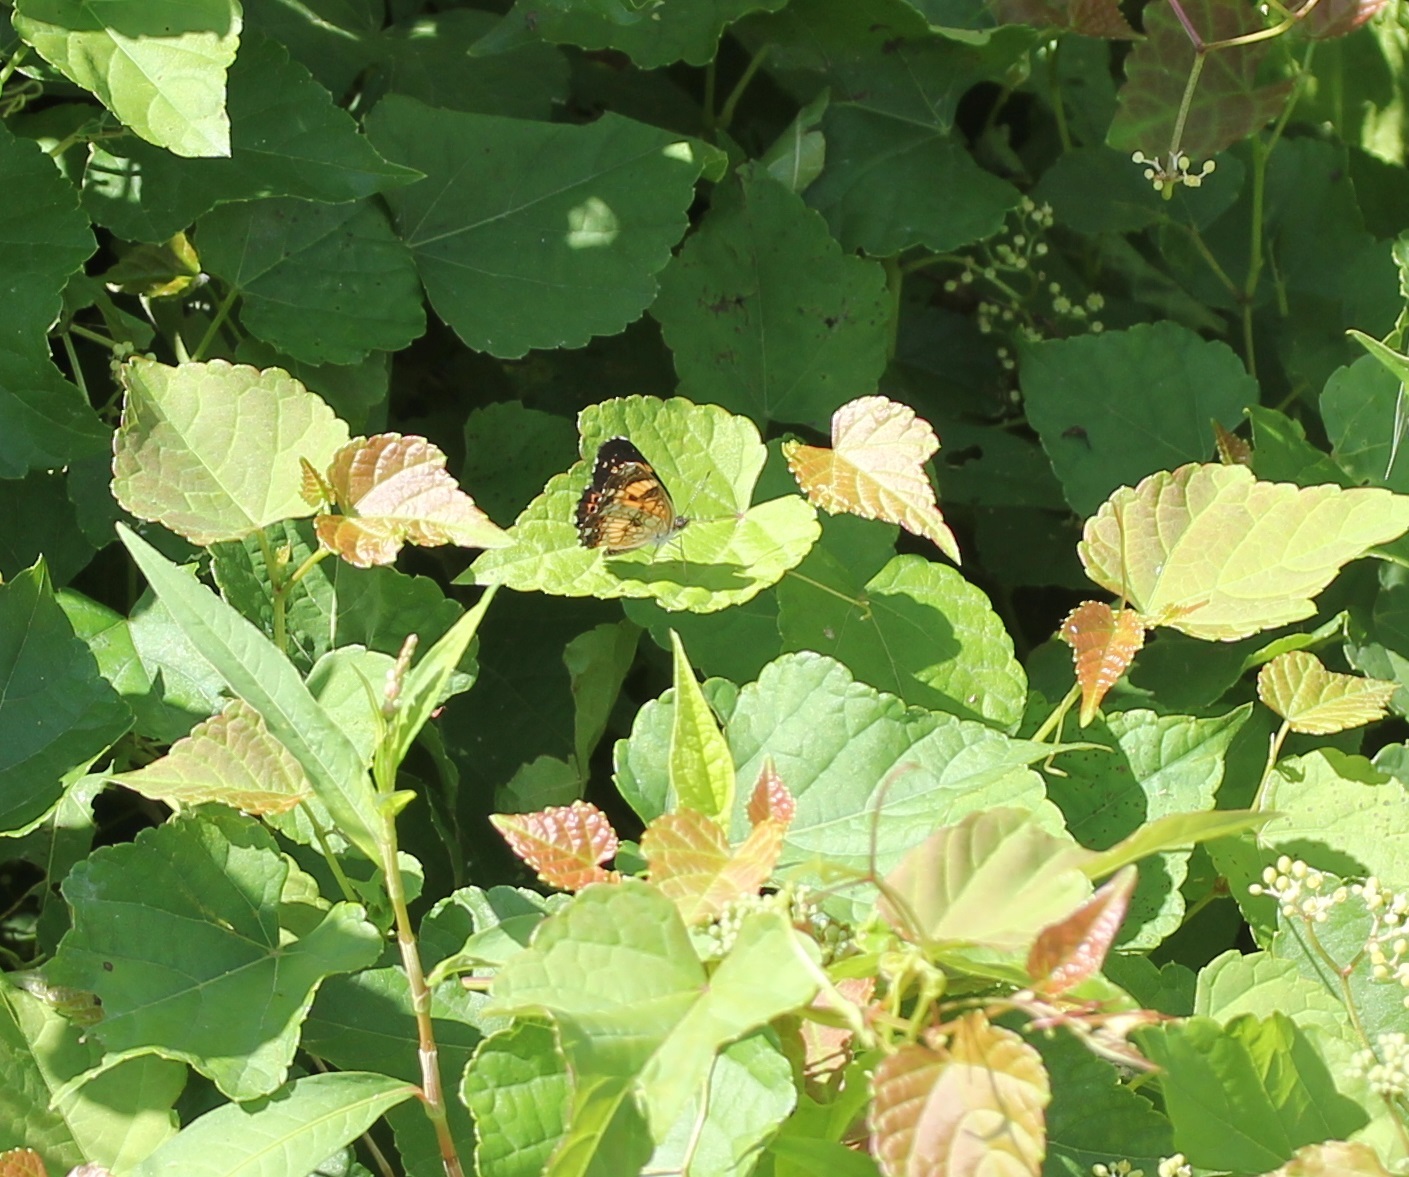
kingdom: Animalia
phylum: Arthropoda
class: Insecta
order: Lepidoptera
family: Nymphalidae
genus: Chlosyne
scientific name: Chlosyne nycteis
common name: Silvery checkerspot
